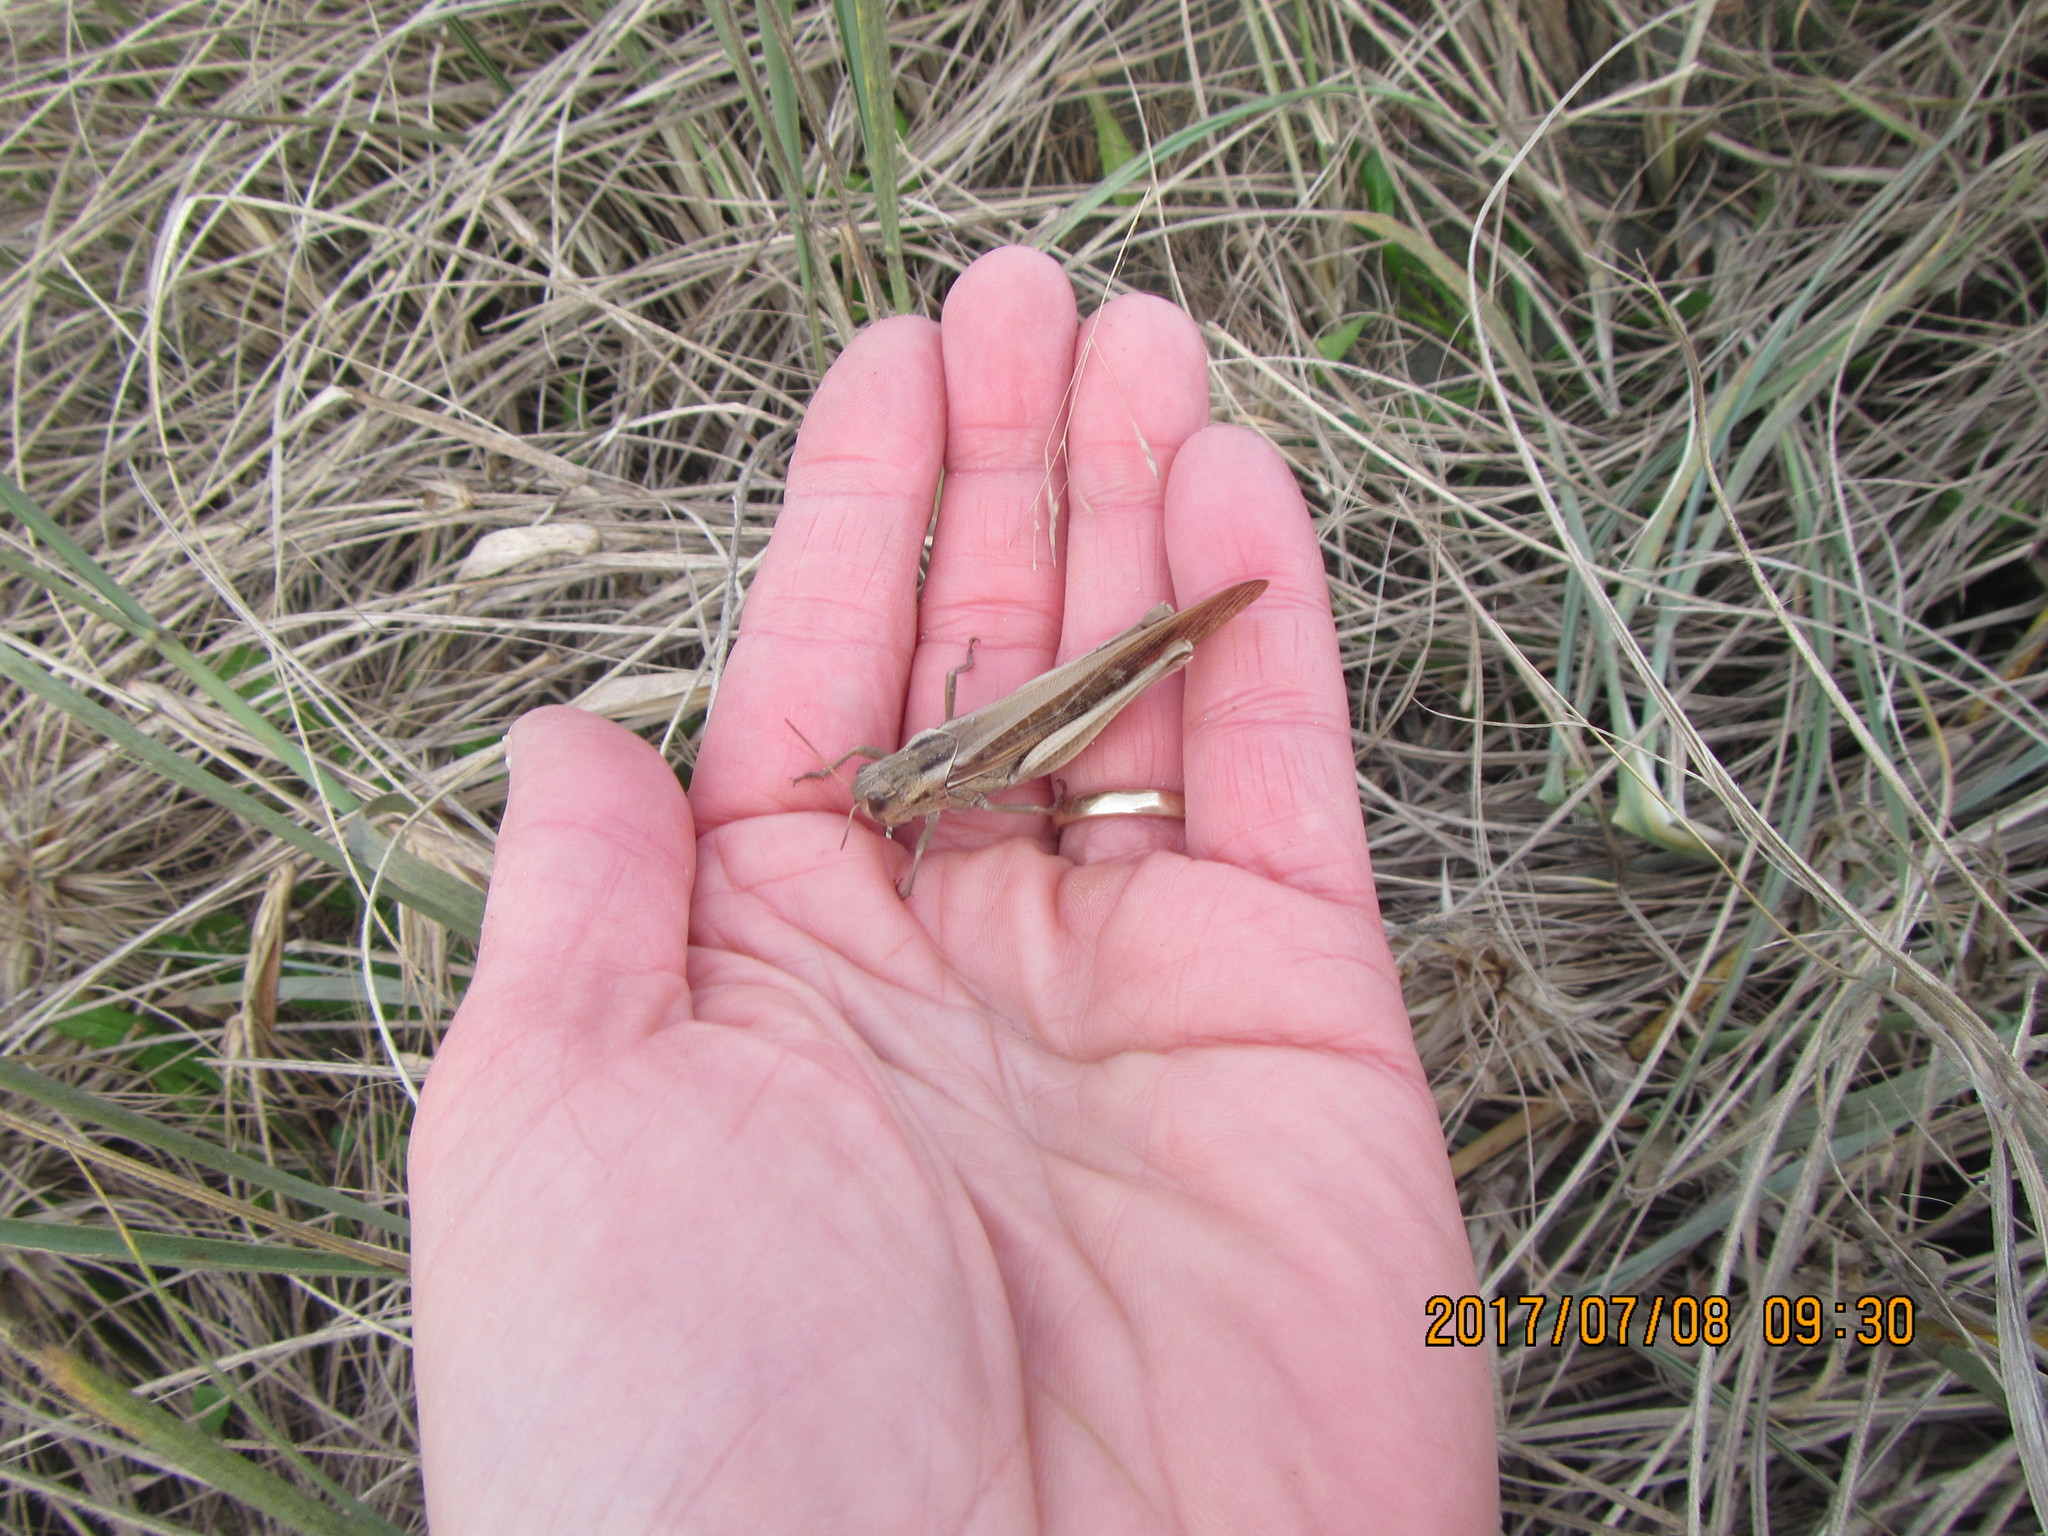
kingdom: Animalia
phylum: Arthropoda
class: Insecta
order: Orthoptera
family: Acrididae
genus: Locusta
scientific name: Locusta migratoria
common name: Migratory locust
